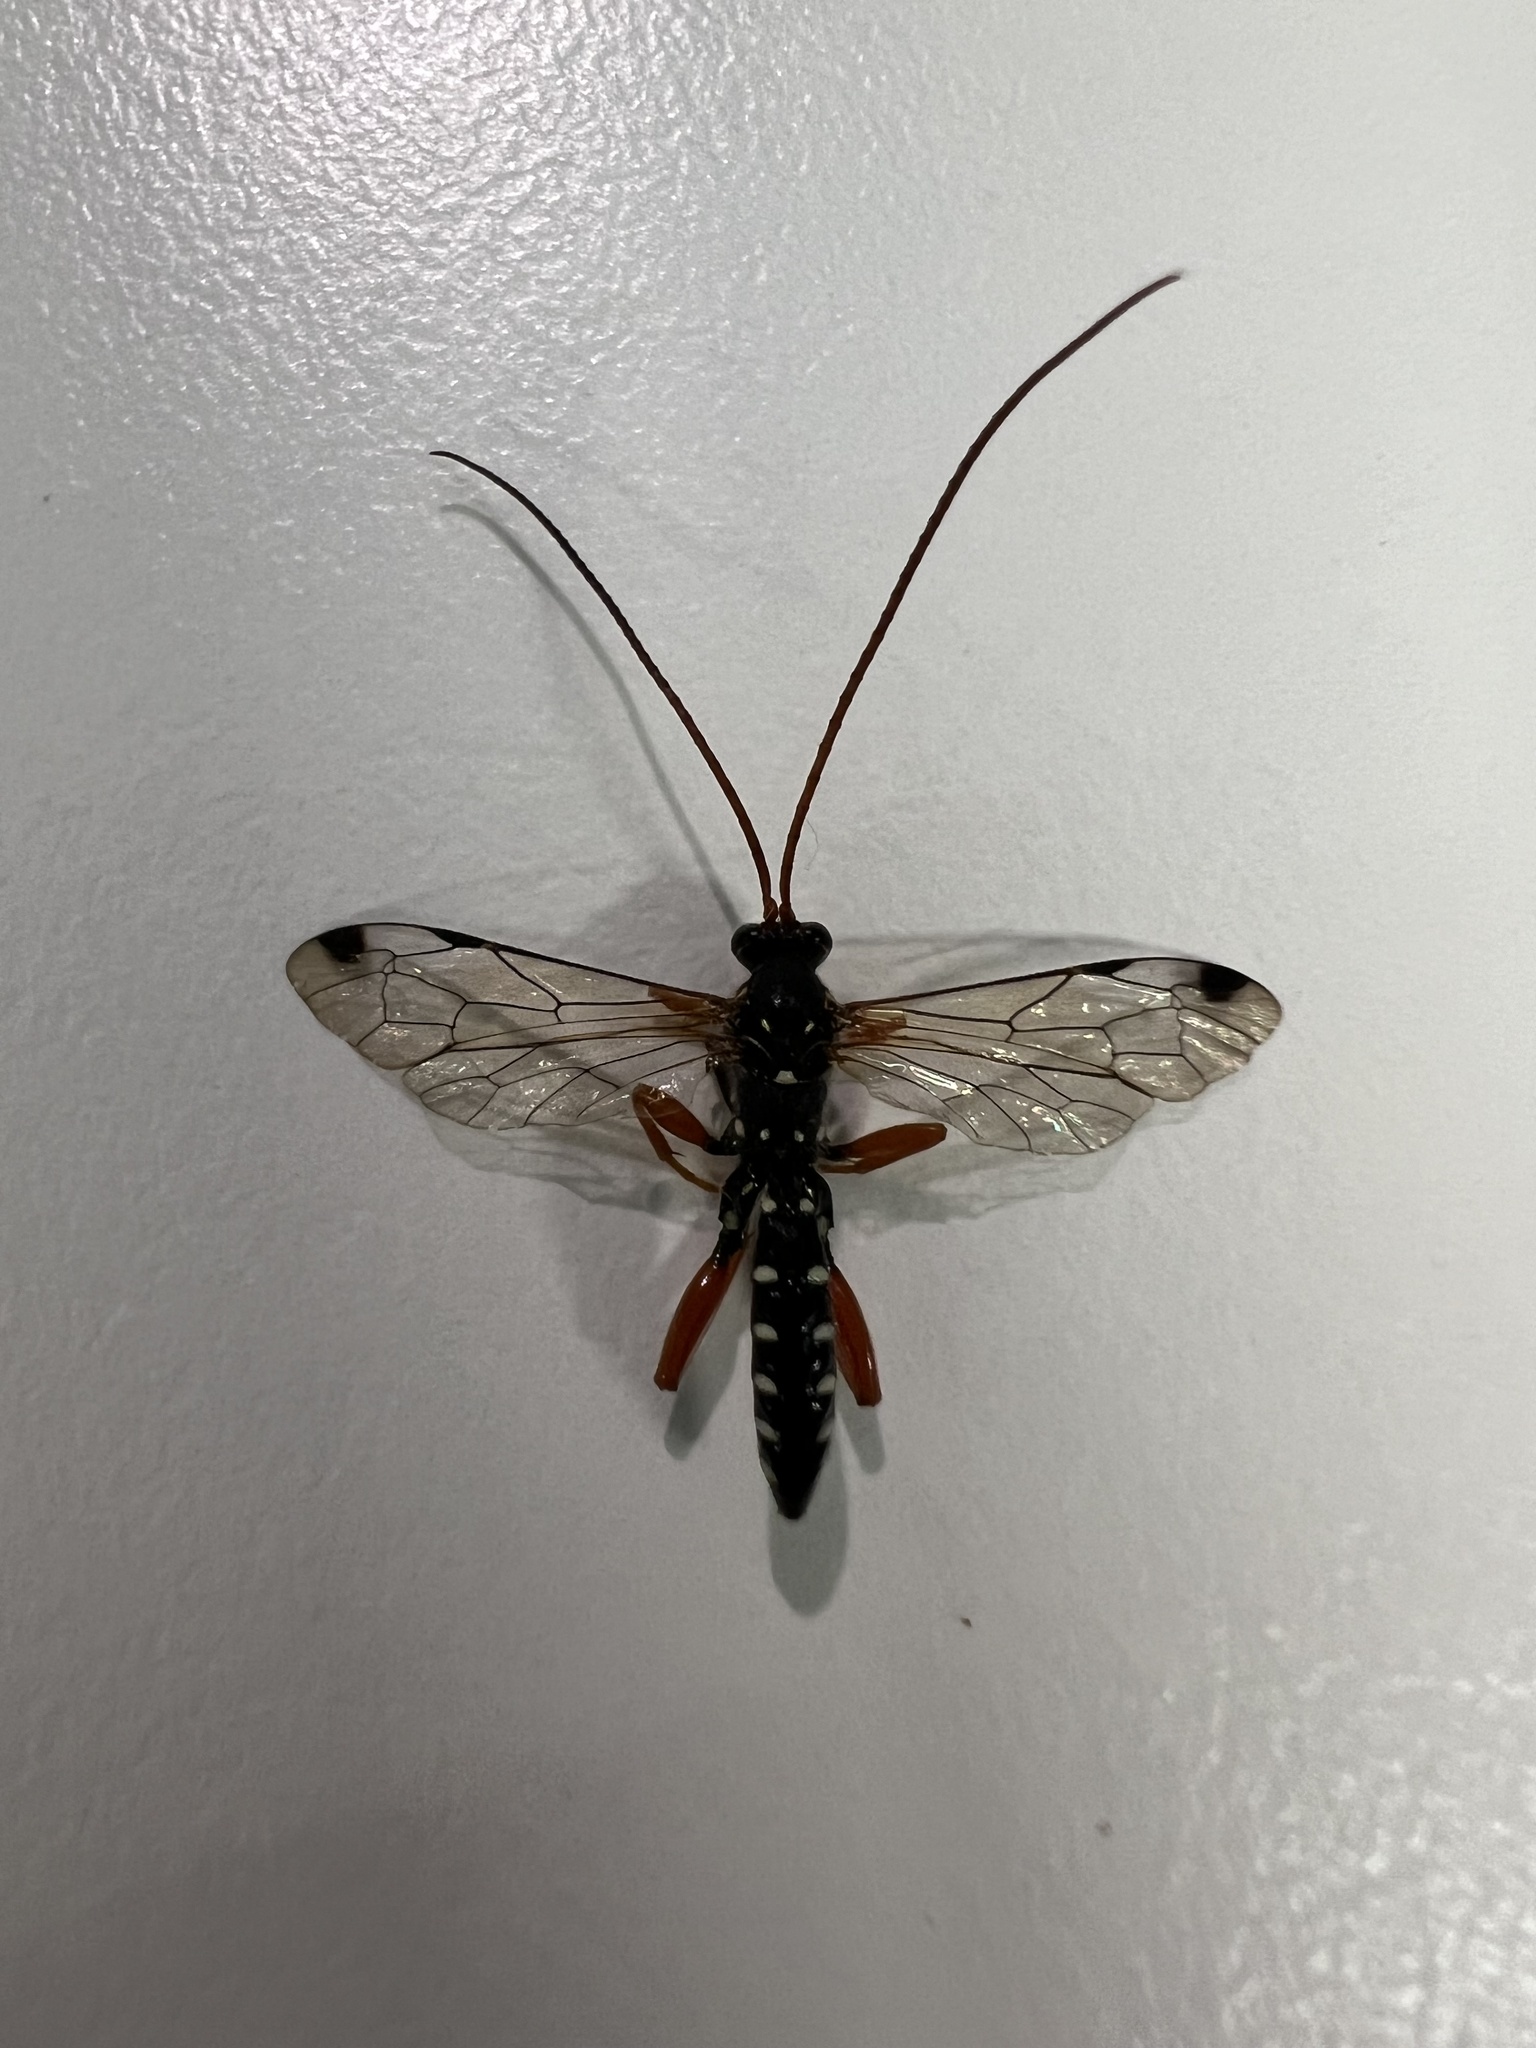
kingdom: Animalia
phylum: Arthropoda
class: Insecta
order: Hymenoptera
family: Ichneumonidae
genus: Echthromorpha
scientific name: Echthromorpha intricatoria
